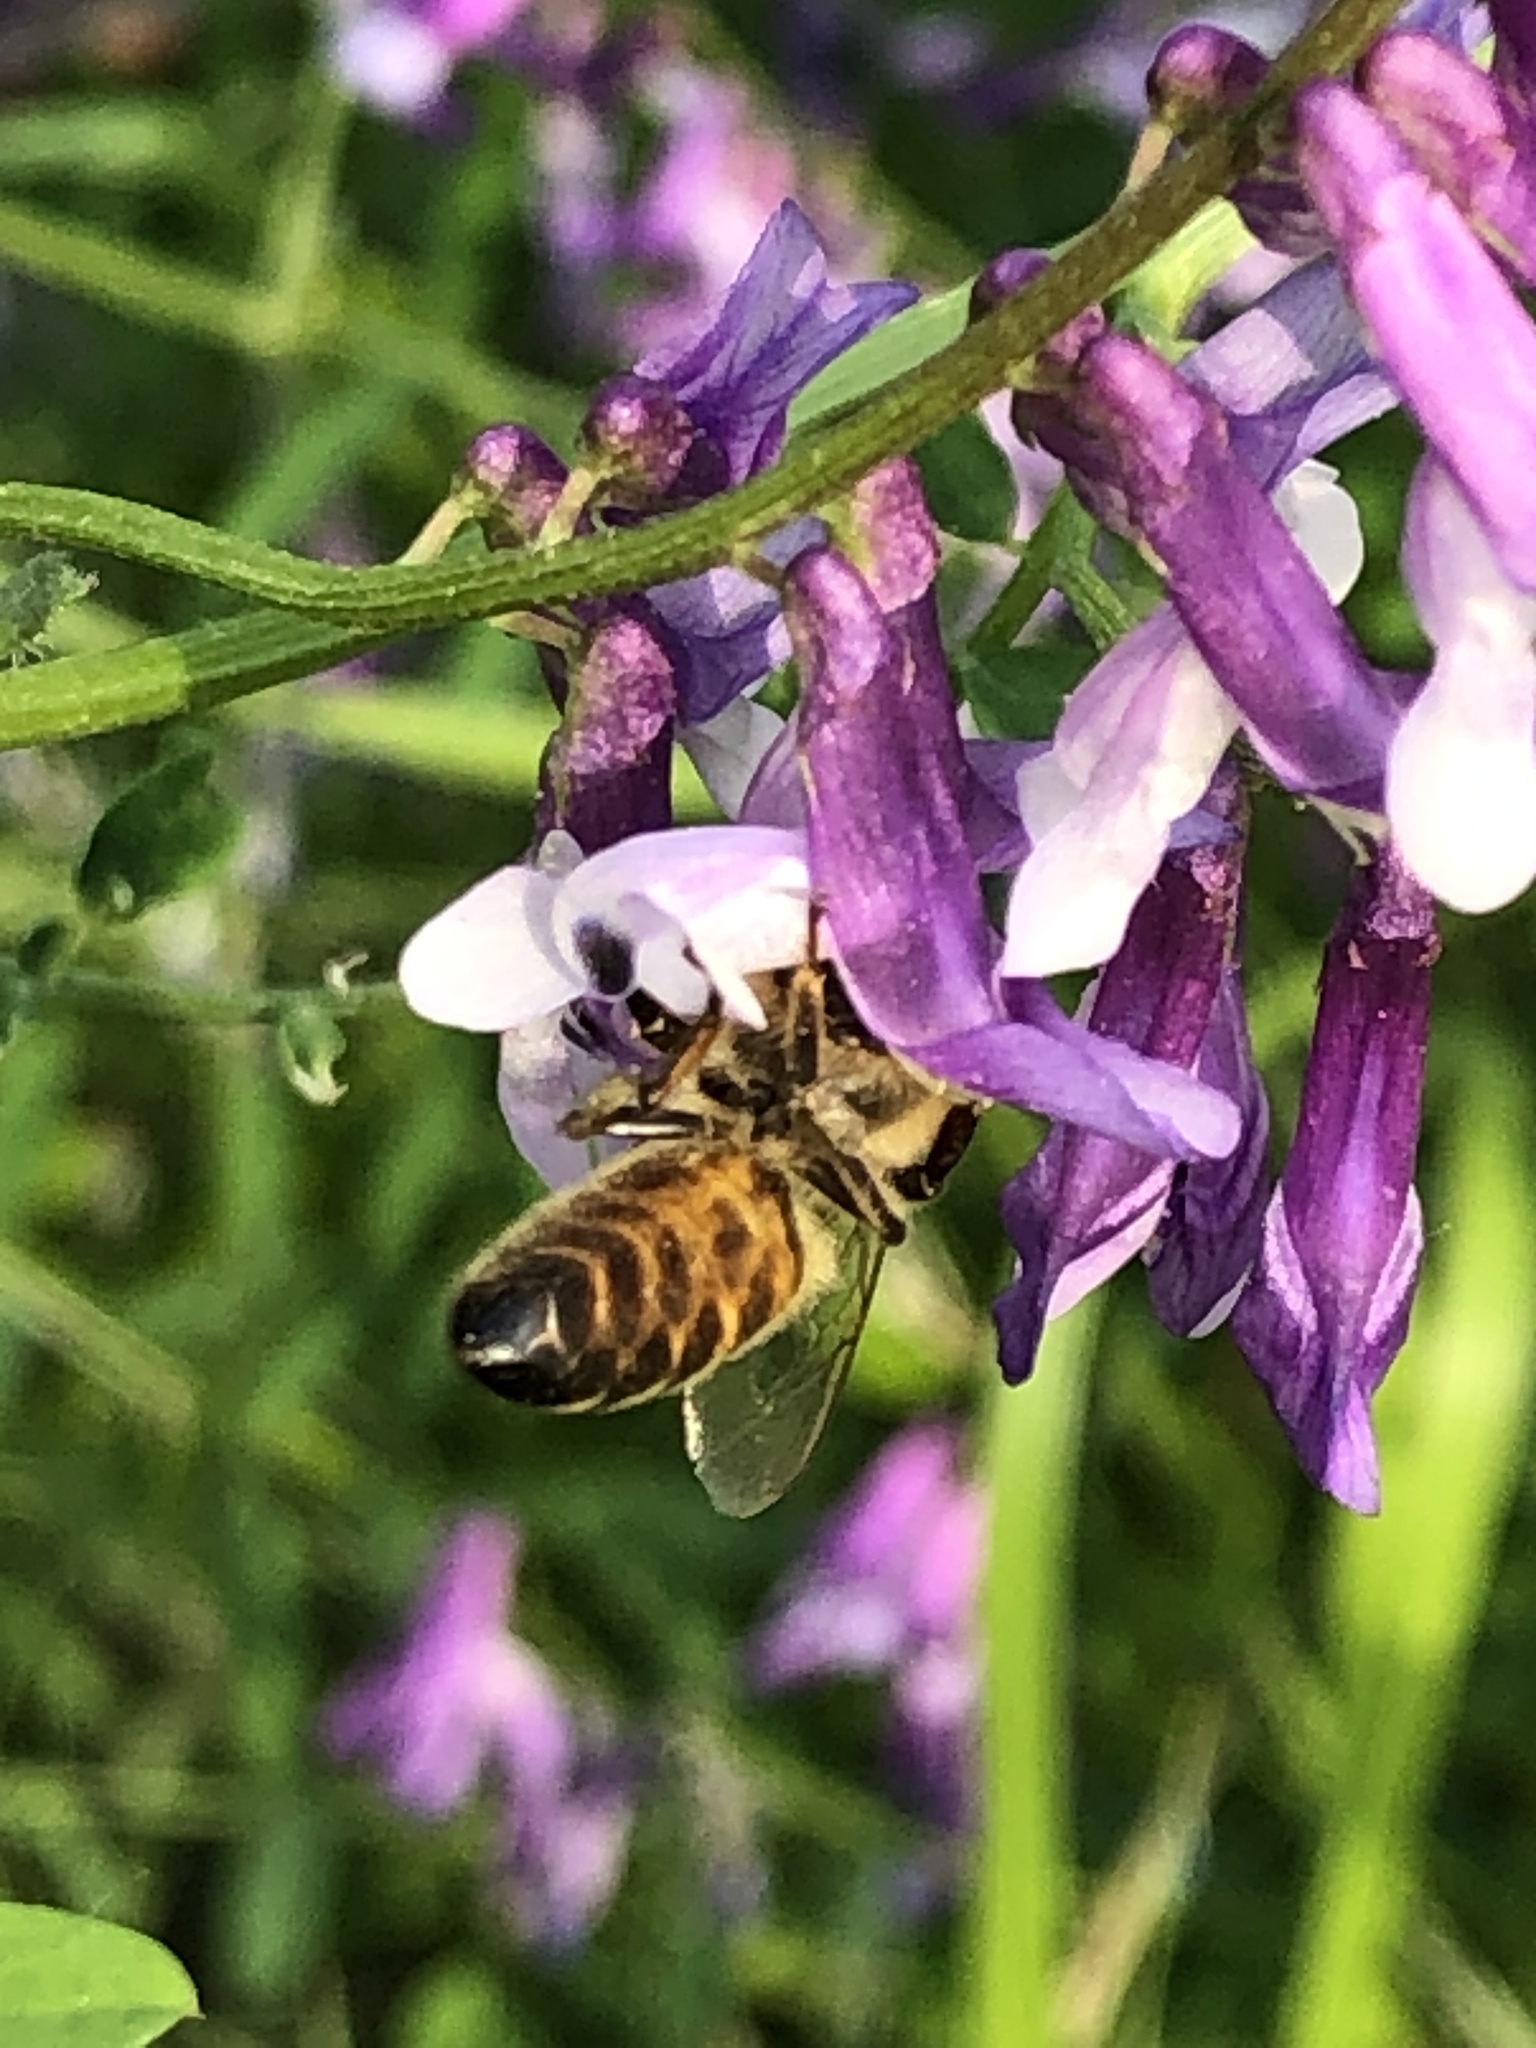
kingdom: Animalia
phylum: Arthropoda
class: Insecta
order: Hymenoptera
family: Apidae
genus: Apis
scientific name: Apis mellifera
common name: Honey bee
